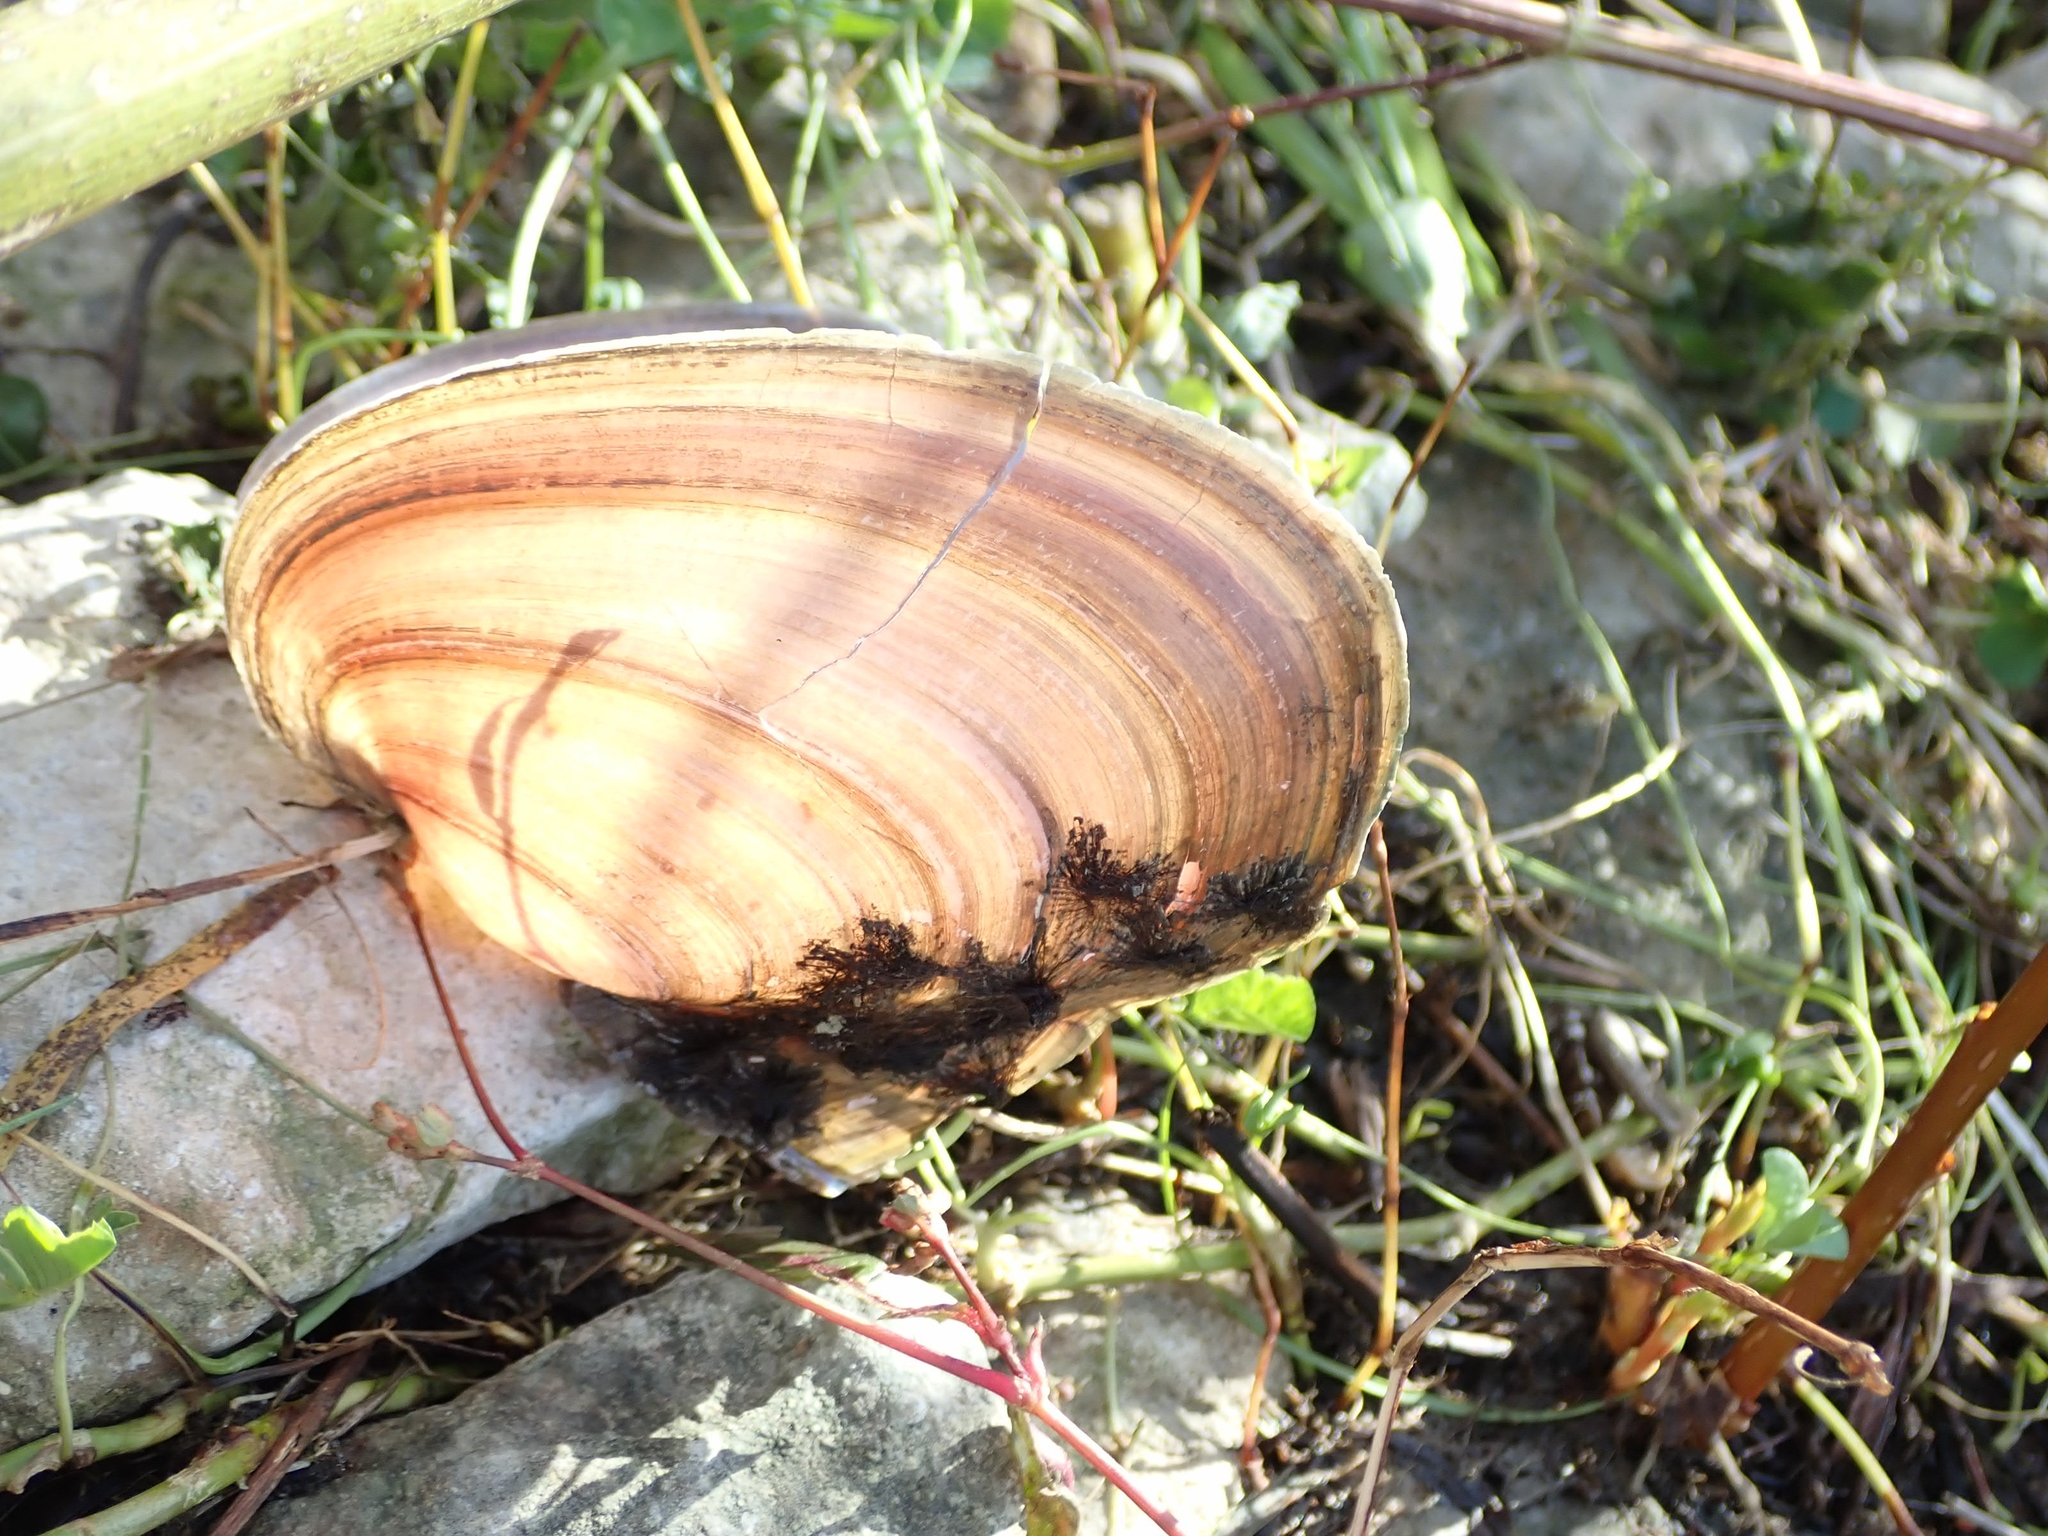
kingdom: Animalia
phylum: Mollusca
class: Bivalvia
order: Unionida
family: Unionidae
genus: Potamilus
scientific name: Potamilus alatus
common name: Pink heelsplitter
